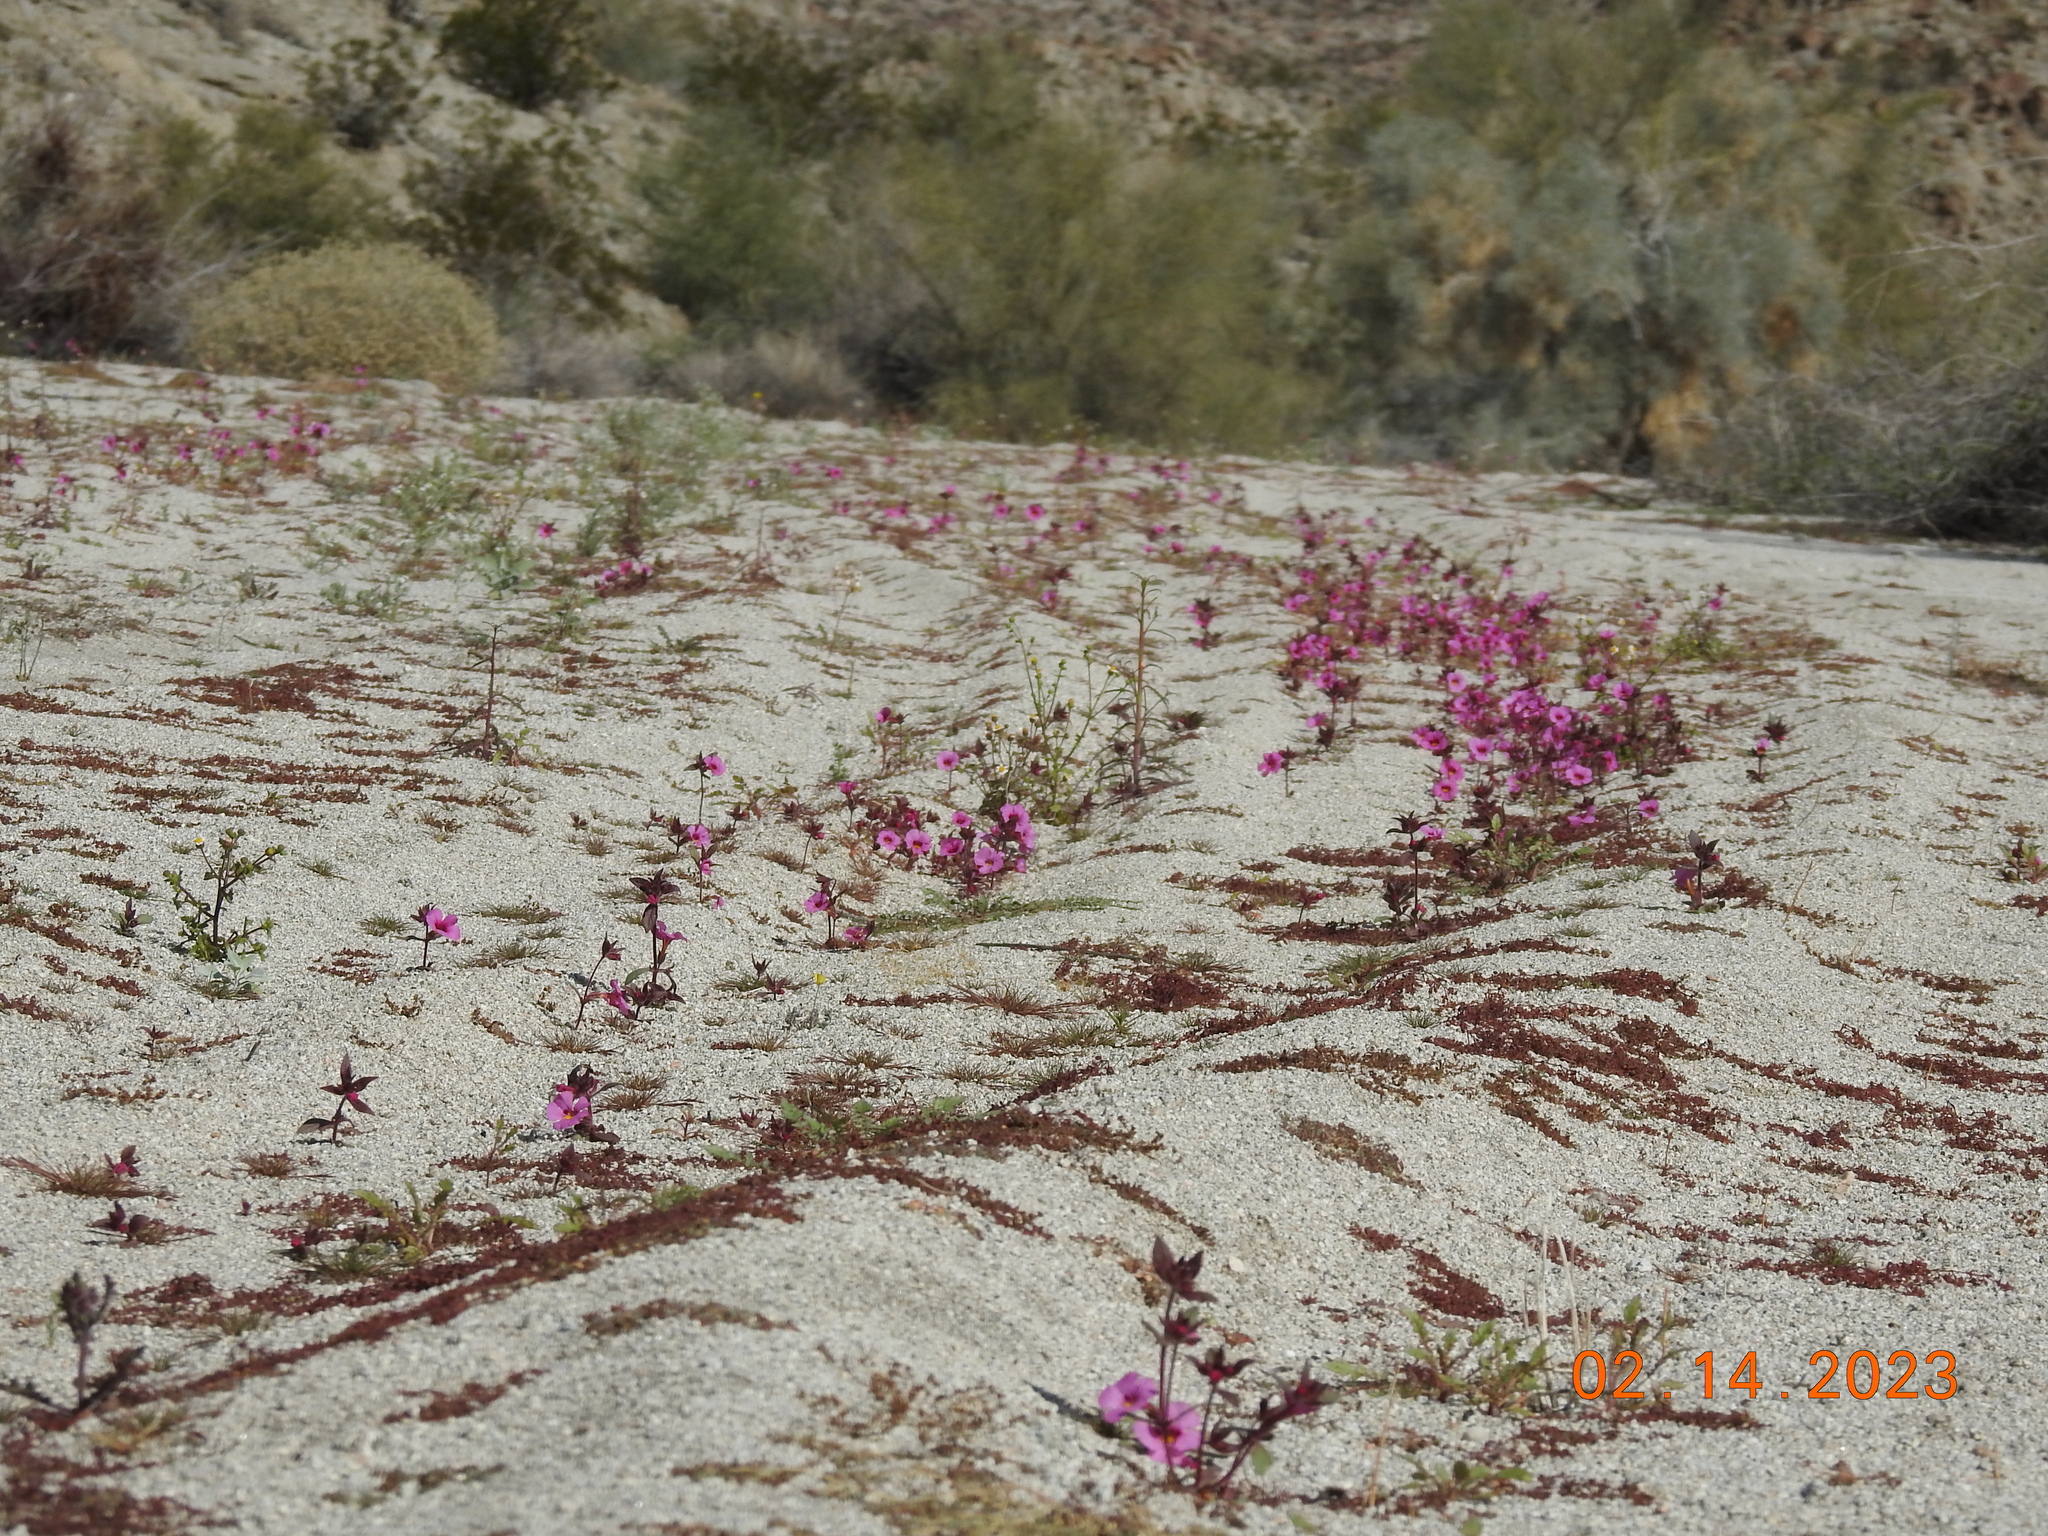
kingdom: Plantae
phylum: Tracheophyta
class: Magnoliopsida
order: Lamiales
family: Phrymaceae
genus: Diplacus
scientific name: Diplacus bigelovii
